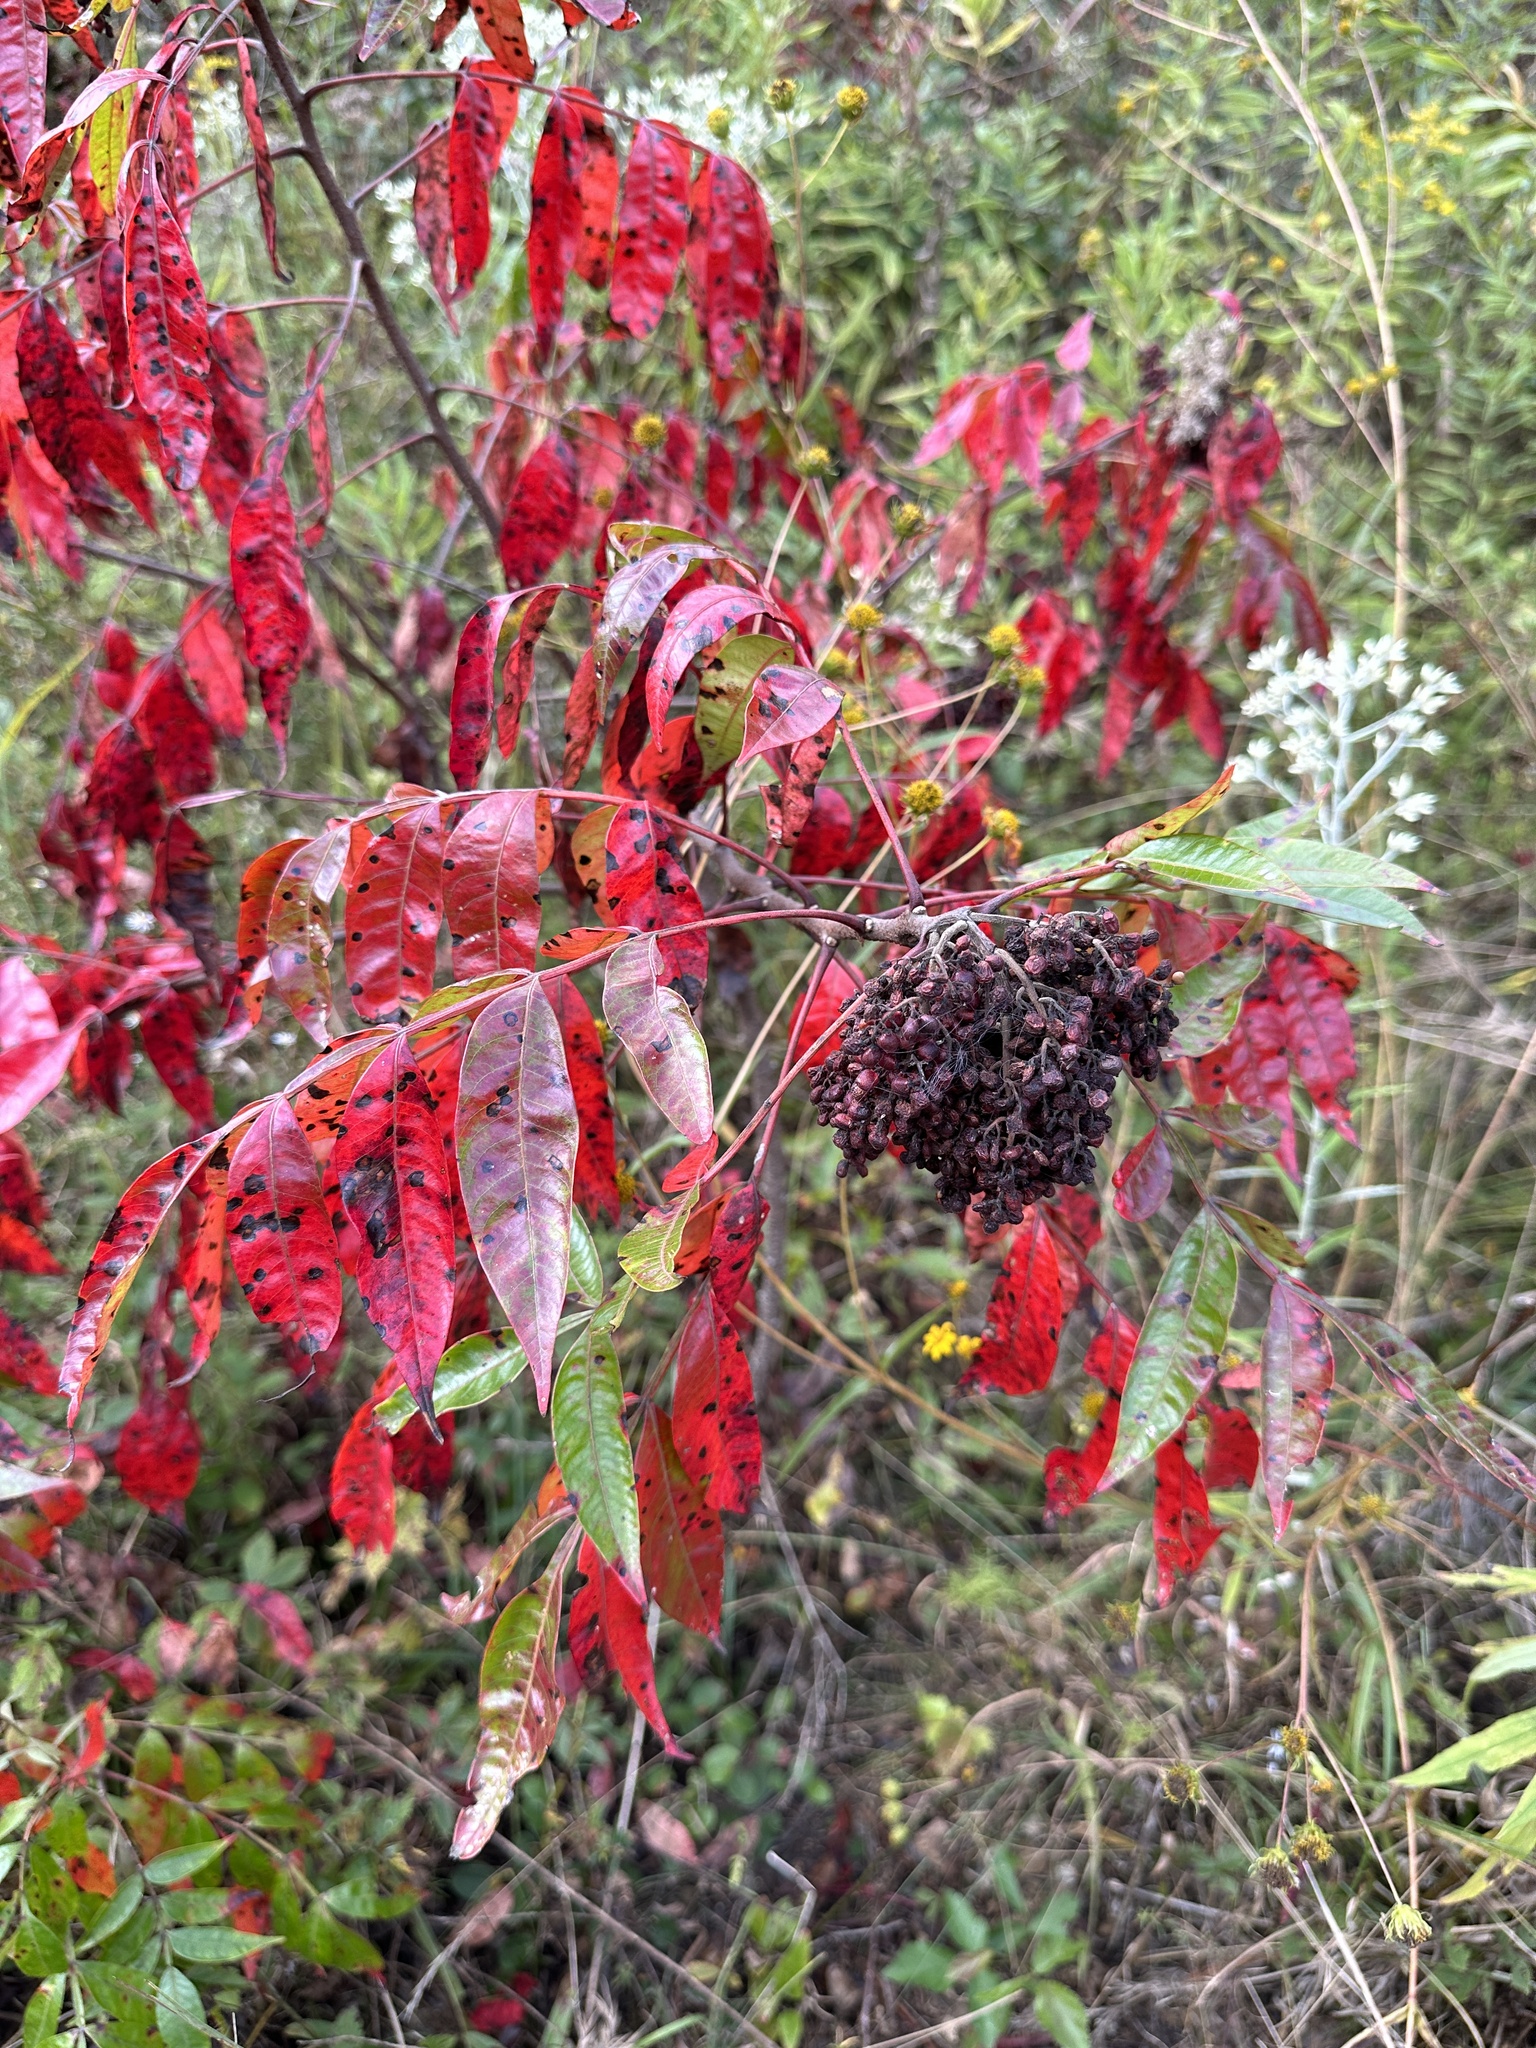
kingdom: Plantae
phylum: Tracheophyta
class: Magnoliopsida
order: Sapindales
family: Anacardiaceae
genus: Rhus
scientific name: Rhus copallina
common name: Shining sumac
